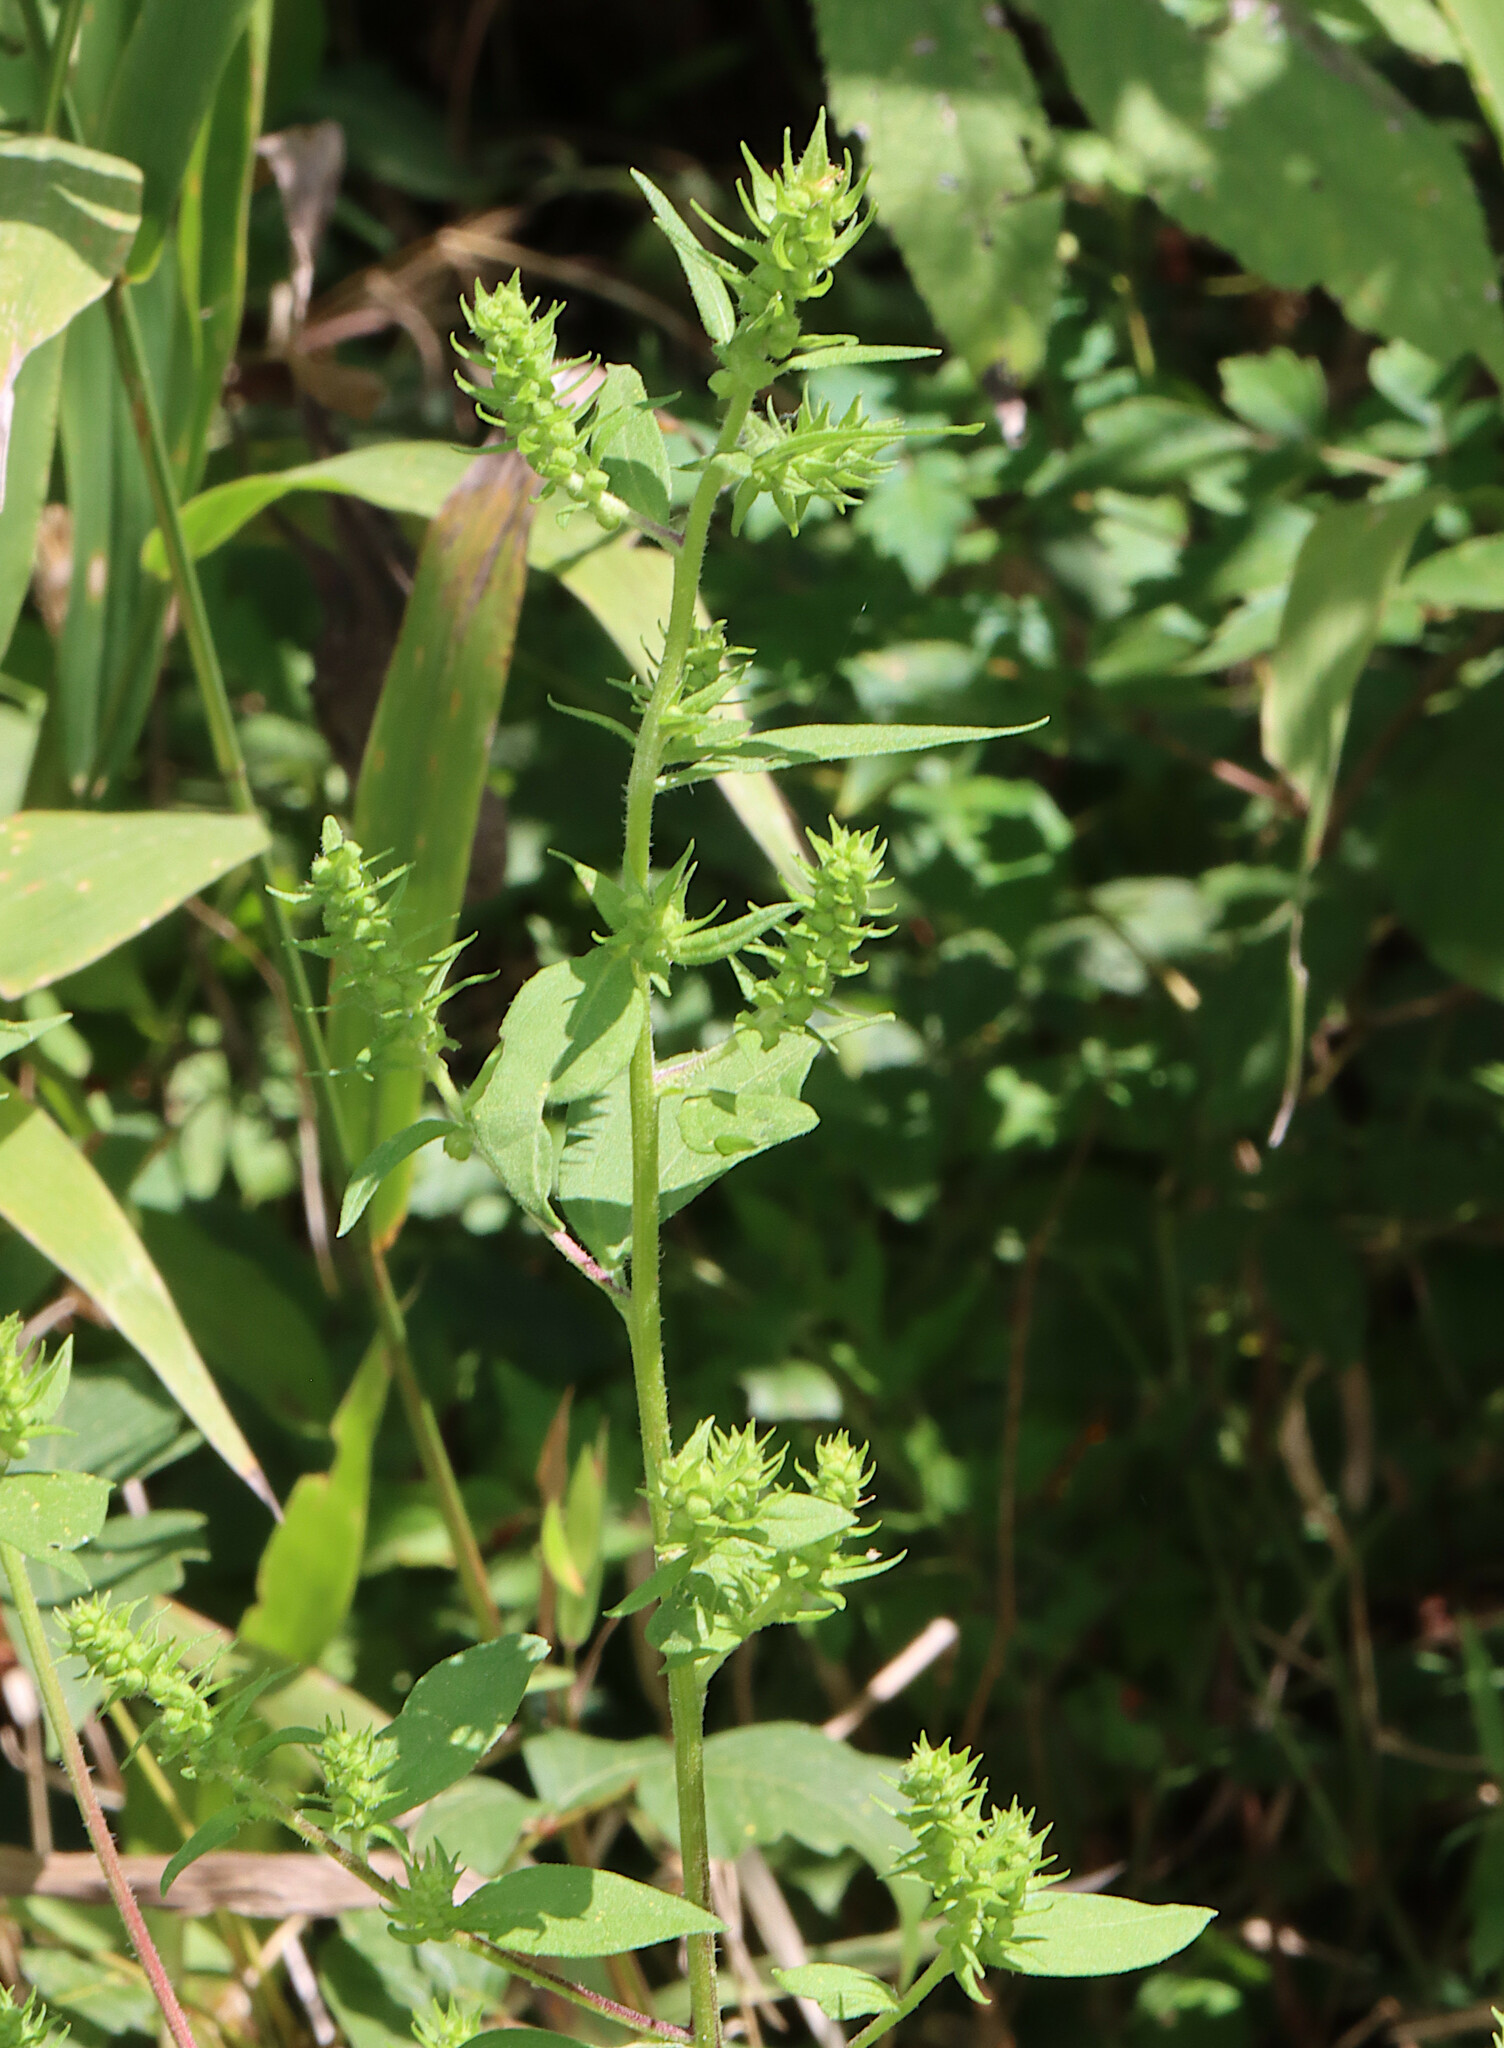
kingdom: Plantae
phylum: Tracheophyta
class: Magnoliopsida
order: Asterales
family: Asteraceae
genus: Iva
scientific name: Iva annua
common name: Marsh-elder
